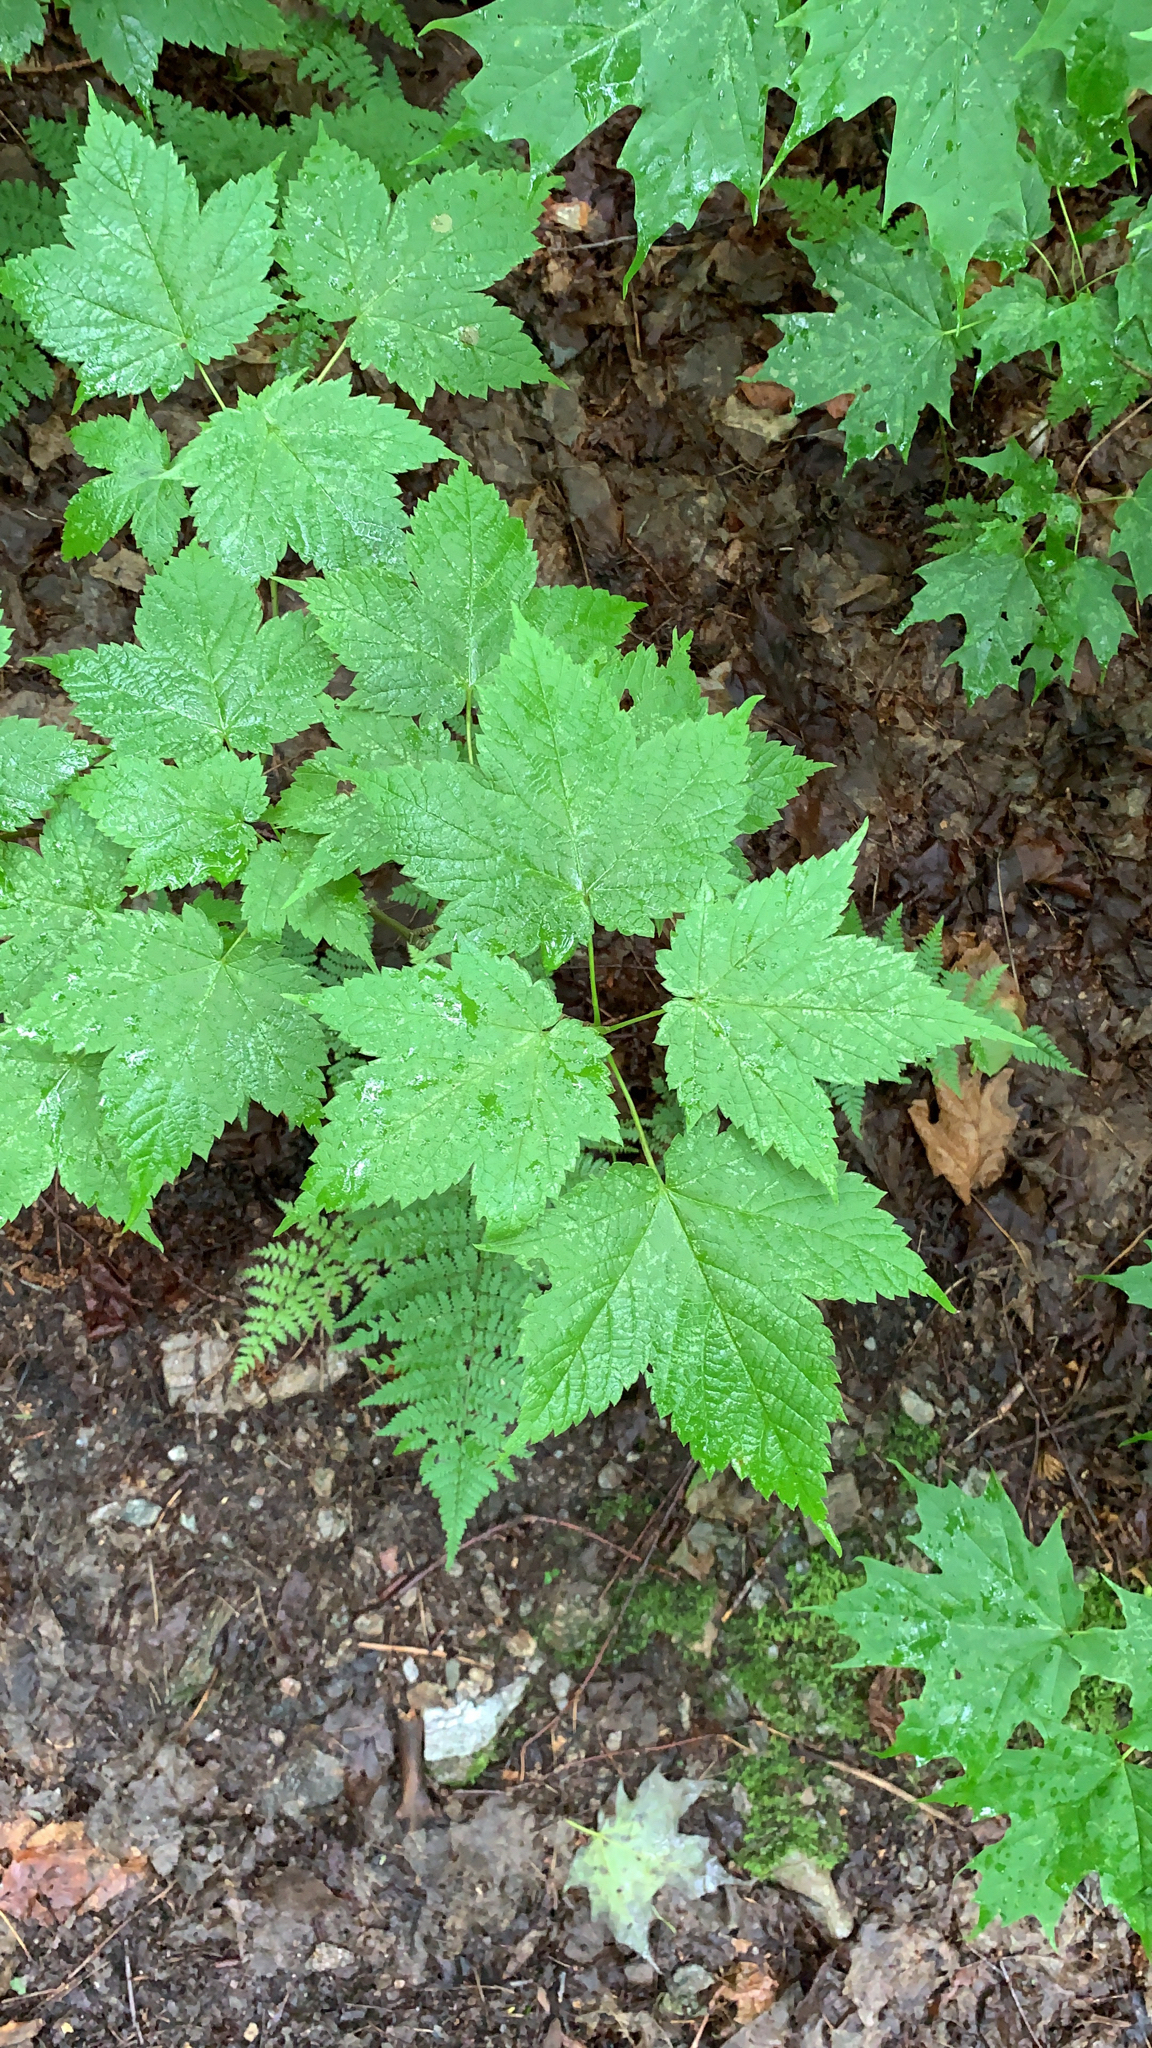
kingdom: Plantae
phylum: Tracheophyta
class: Magnoliopsida
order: Sapindales
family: Sapindaceae
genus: Acer
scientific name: Acer spicatum
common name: Mountain maple
